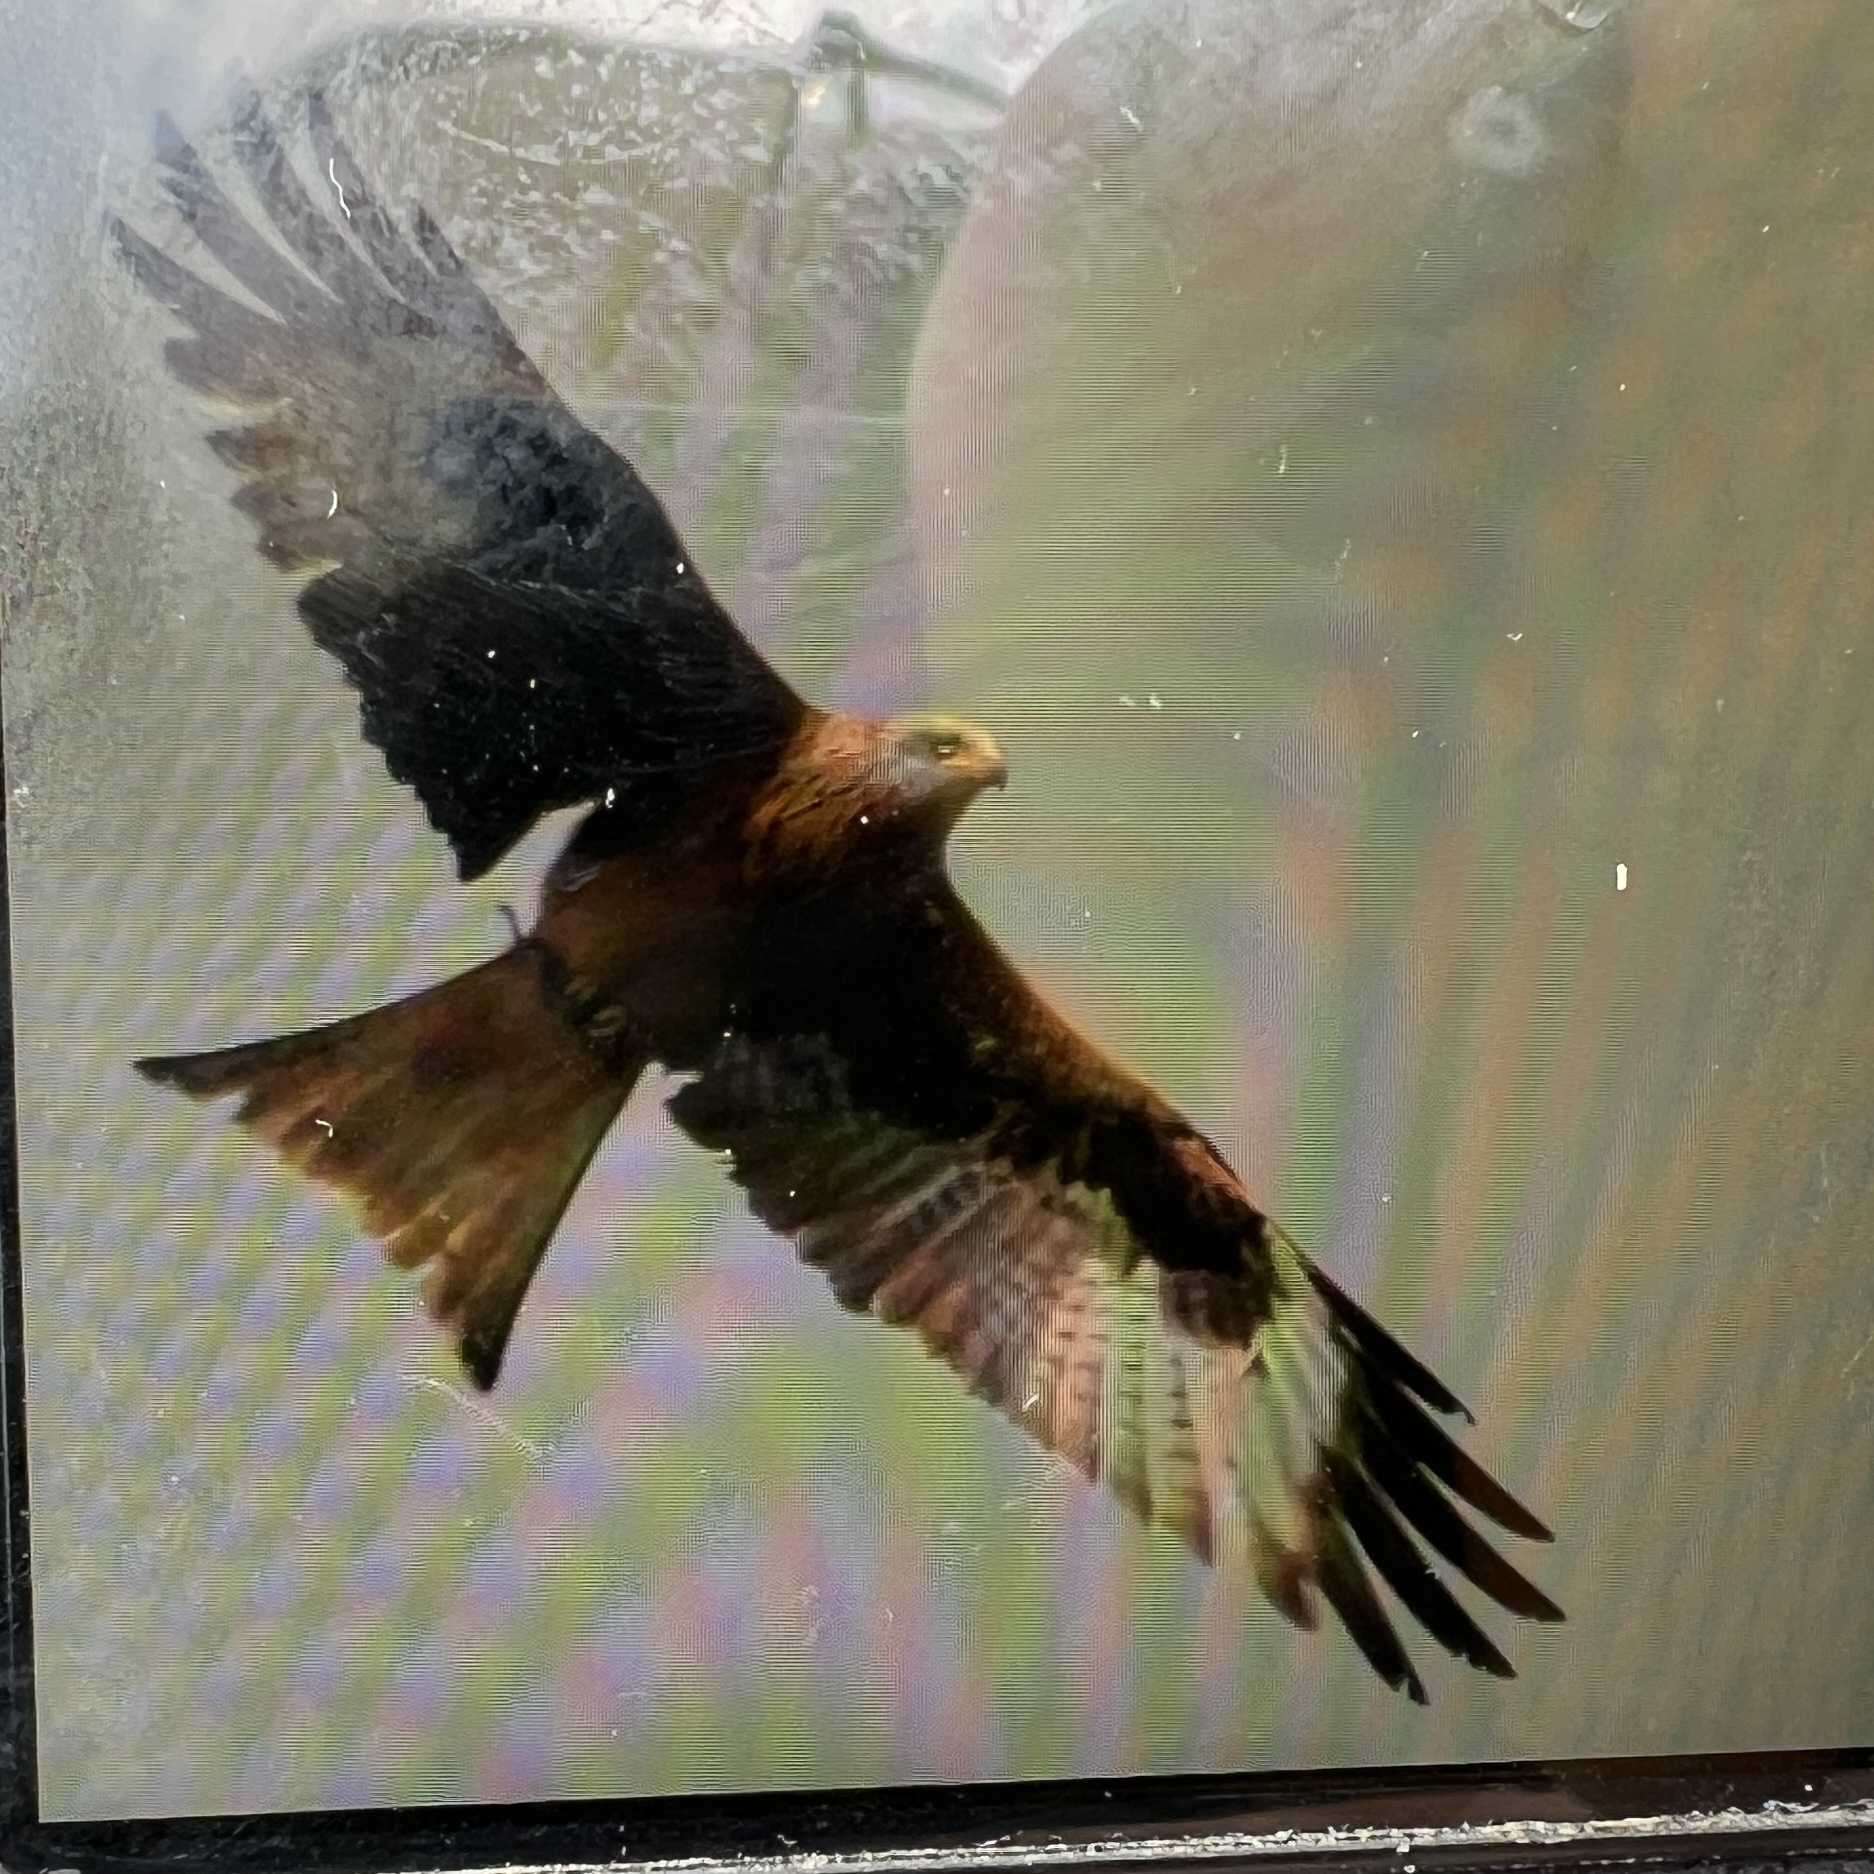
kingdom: Animalia
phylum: Chordata
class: Aves
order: Accipitriformes
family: Accipitridae
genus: Milvus
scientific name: Milvus milvus
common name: Red kite
